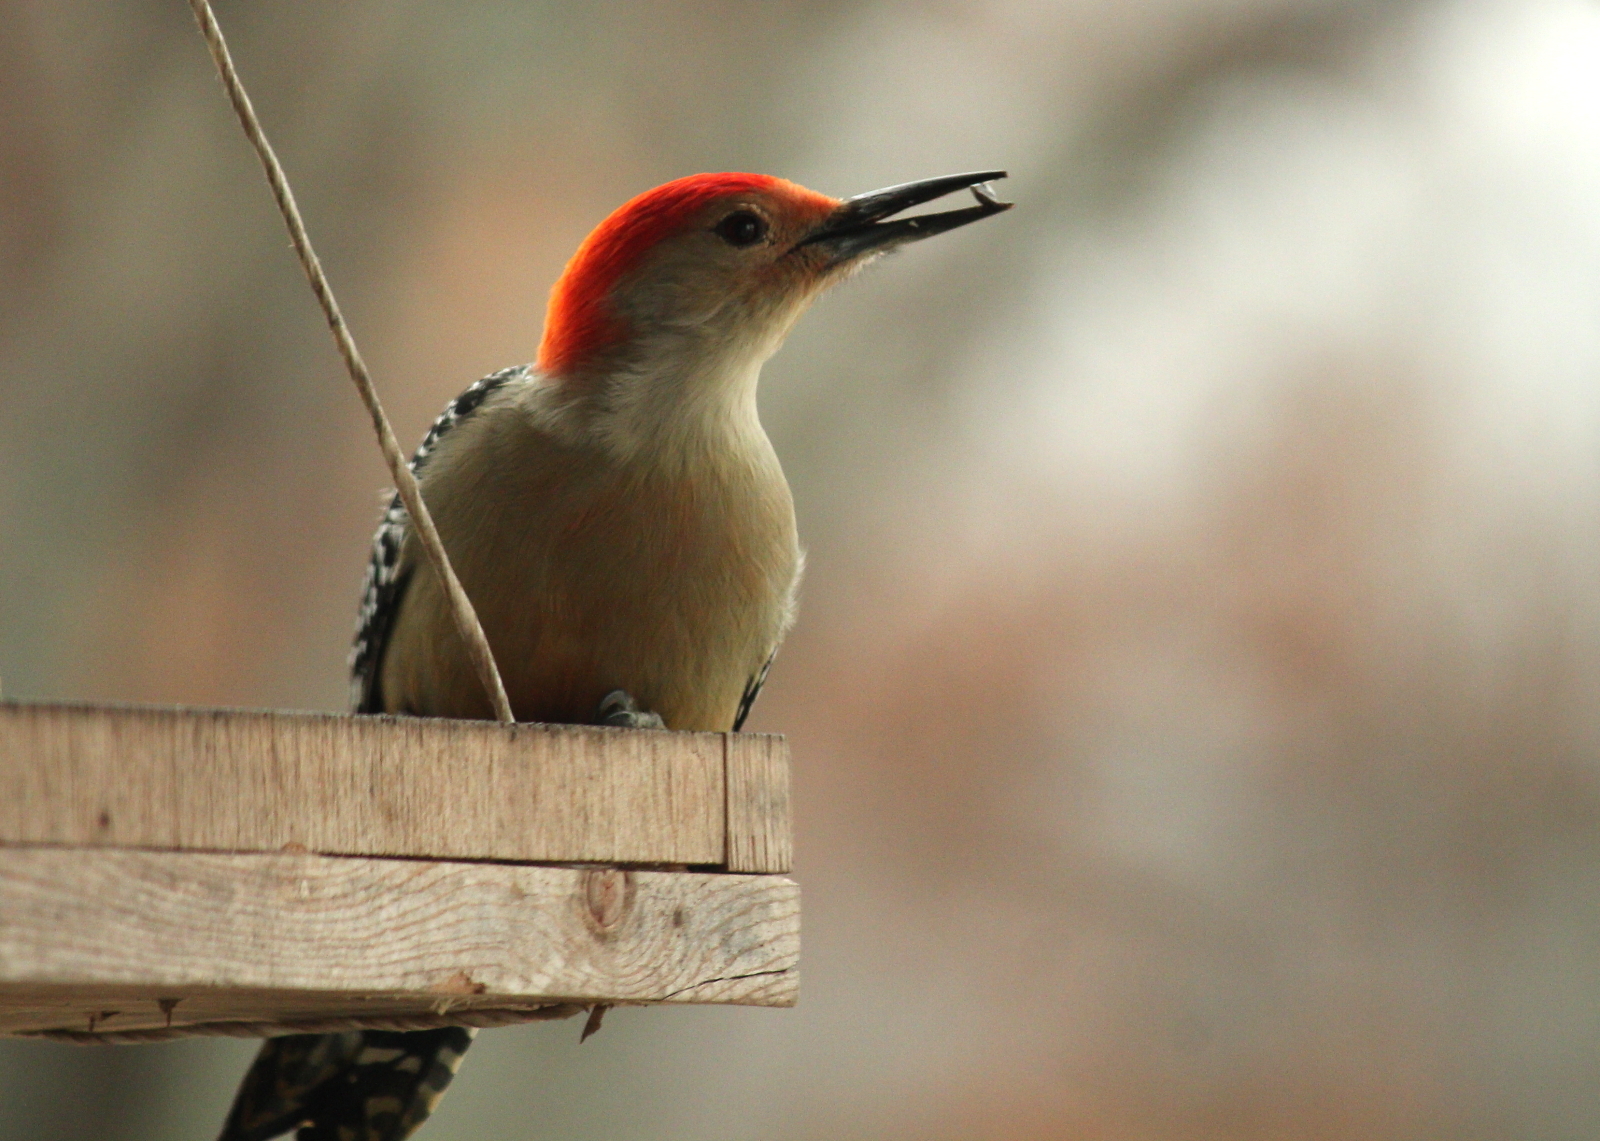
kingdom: Animalia
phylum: Chordata
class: Aves
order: Piciformes
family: Picidae
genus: Melanerpes
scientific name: Melanerpes carolinus
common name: Red-bellied woodpecker
